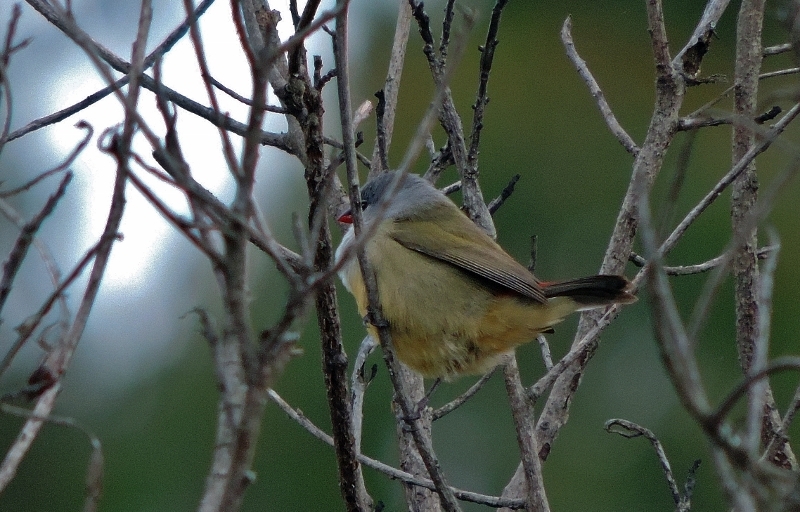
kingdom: Animalia
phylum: Chordata
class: Aves
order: Passeriformes
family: Estrildidae
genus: Coccopygia
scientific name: Coccopygia quartinia
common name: Yellow-bellied waxbill
